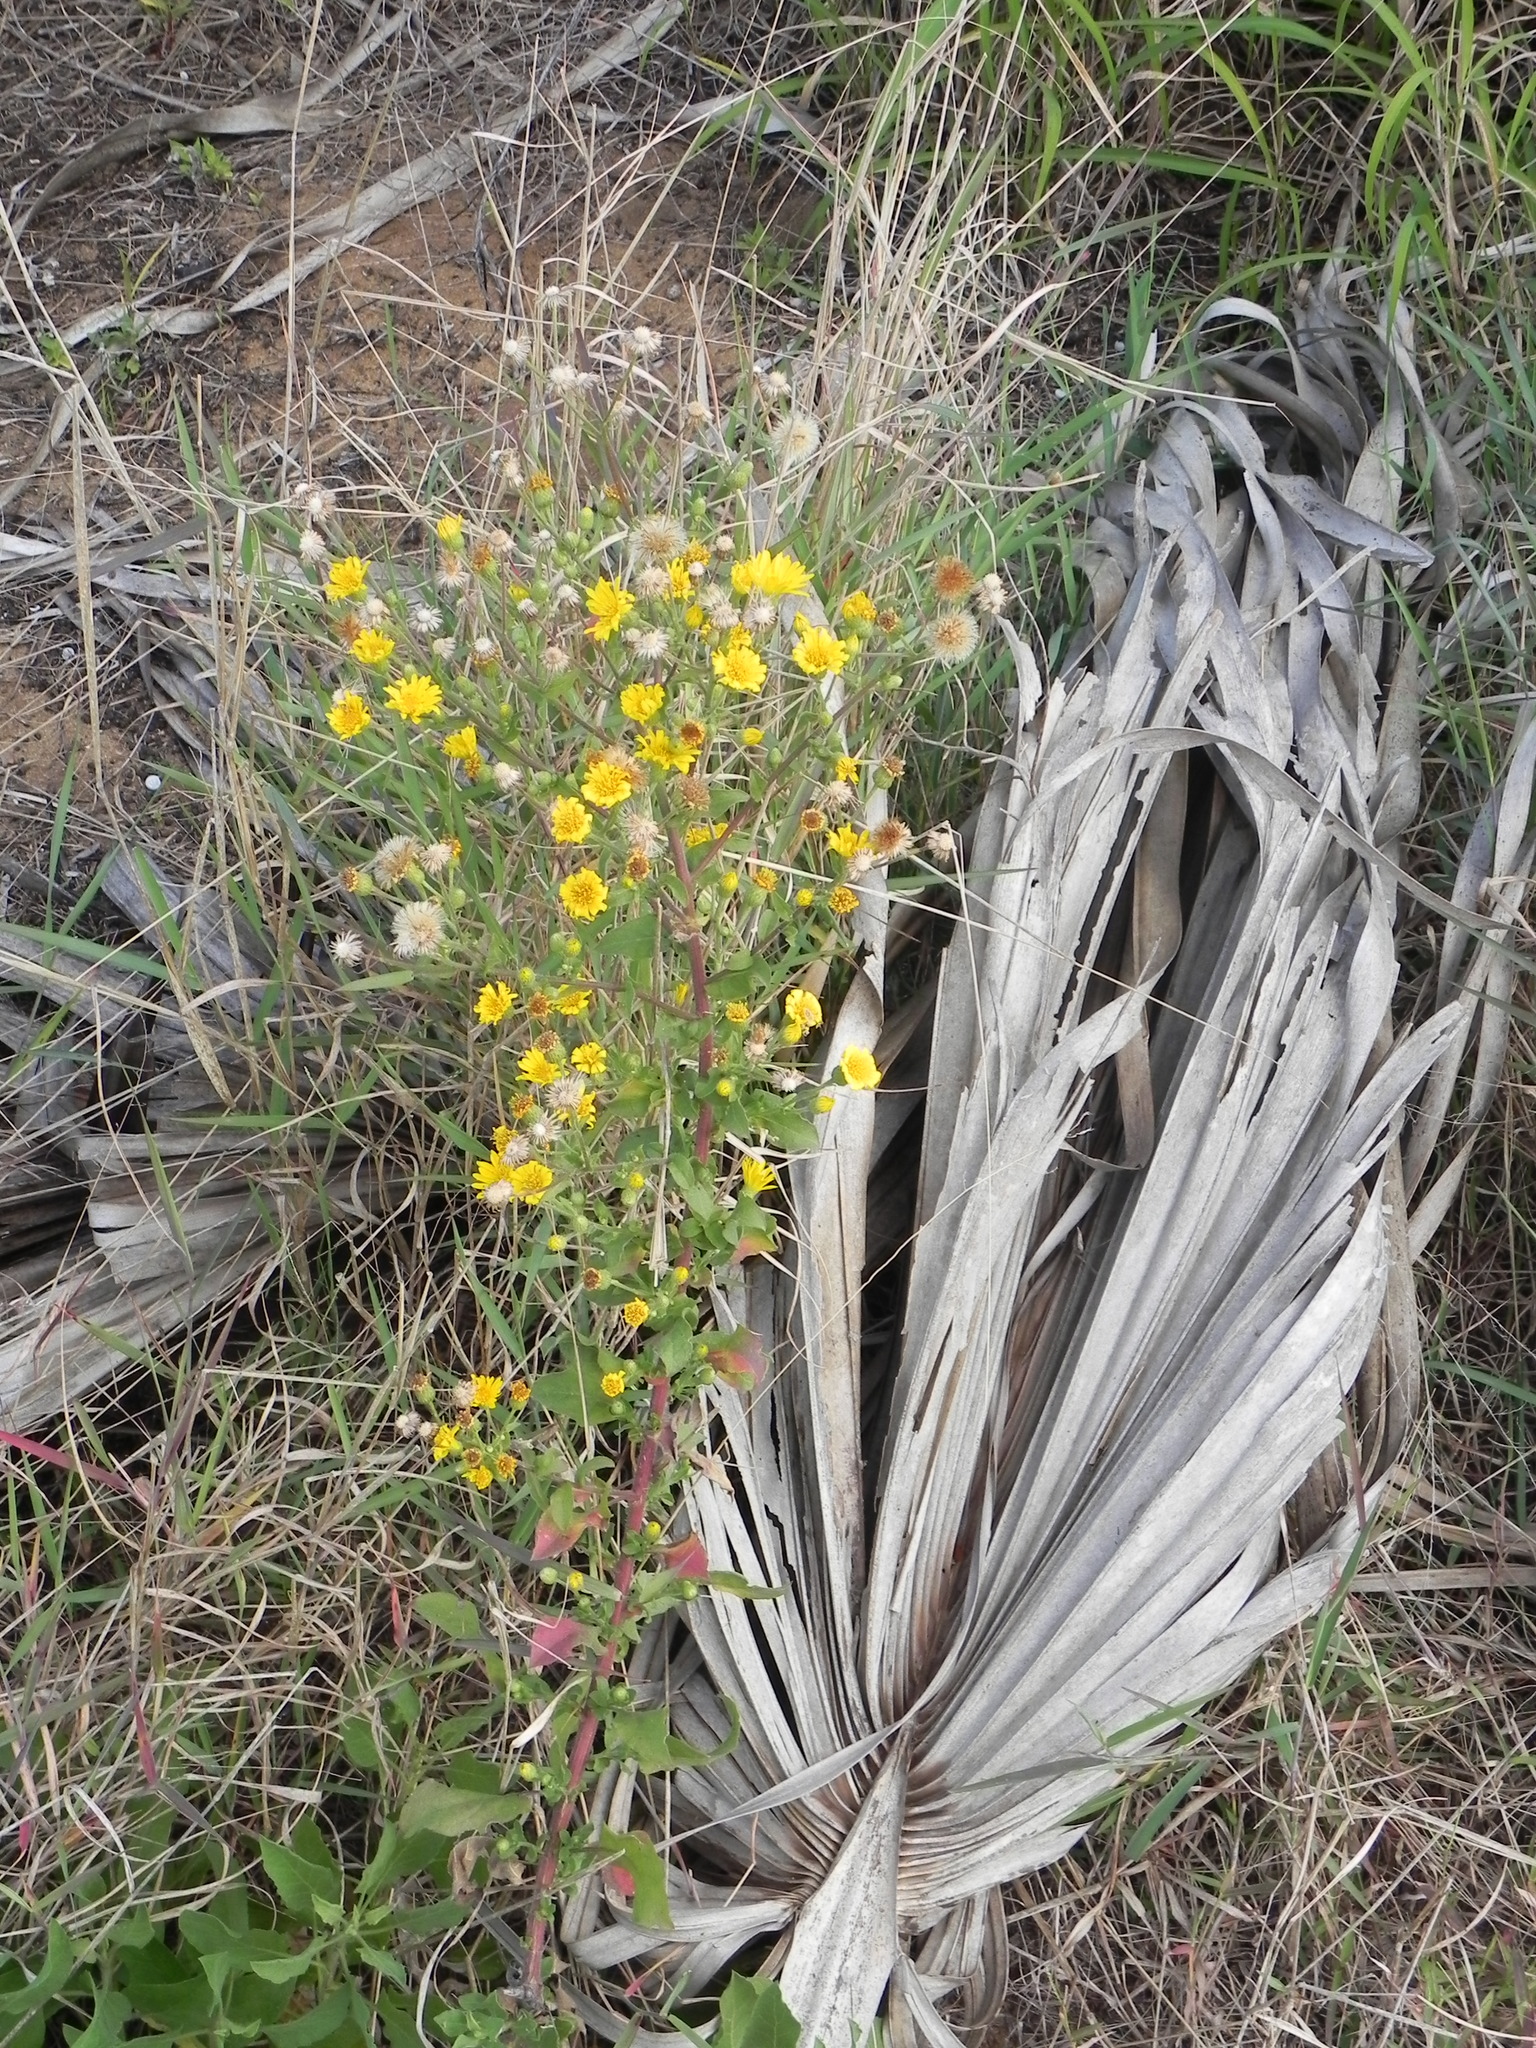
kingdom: Plantae
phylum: Tracheophyta
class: Magnoliopsida
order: Asterales
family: Asteraceae
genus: Heterotheca
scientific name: Heterotheca subaxillaris
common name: Camphorweed
